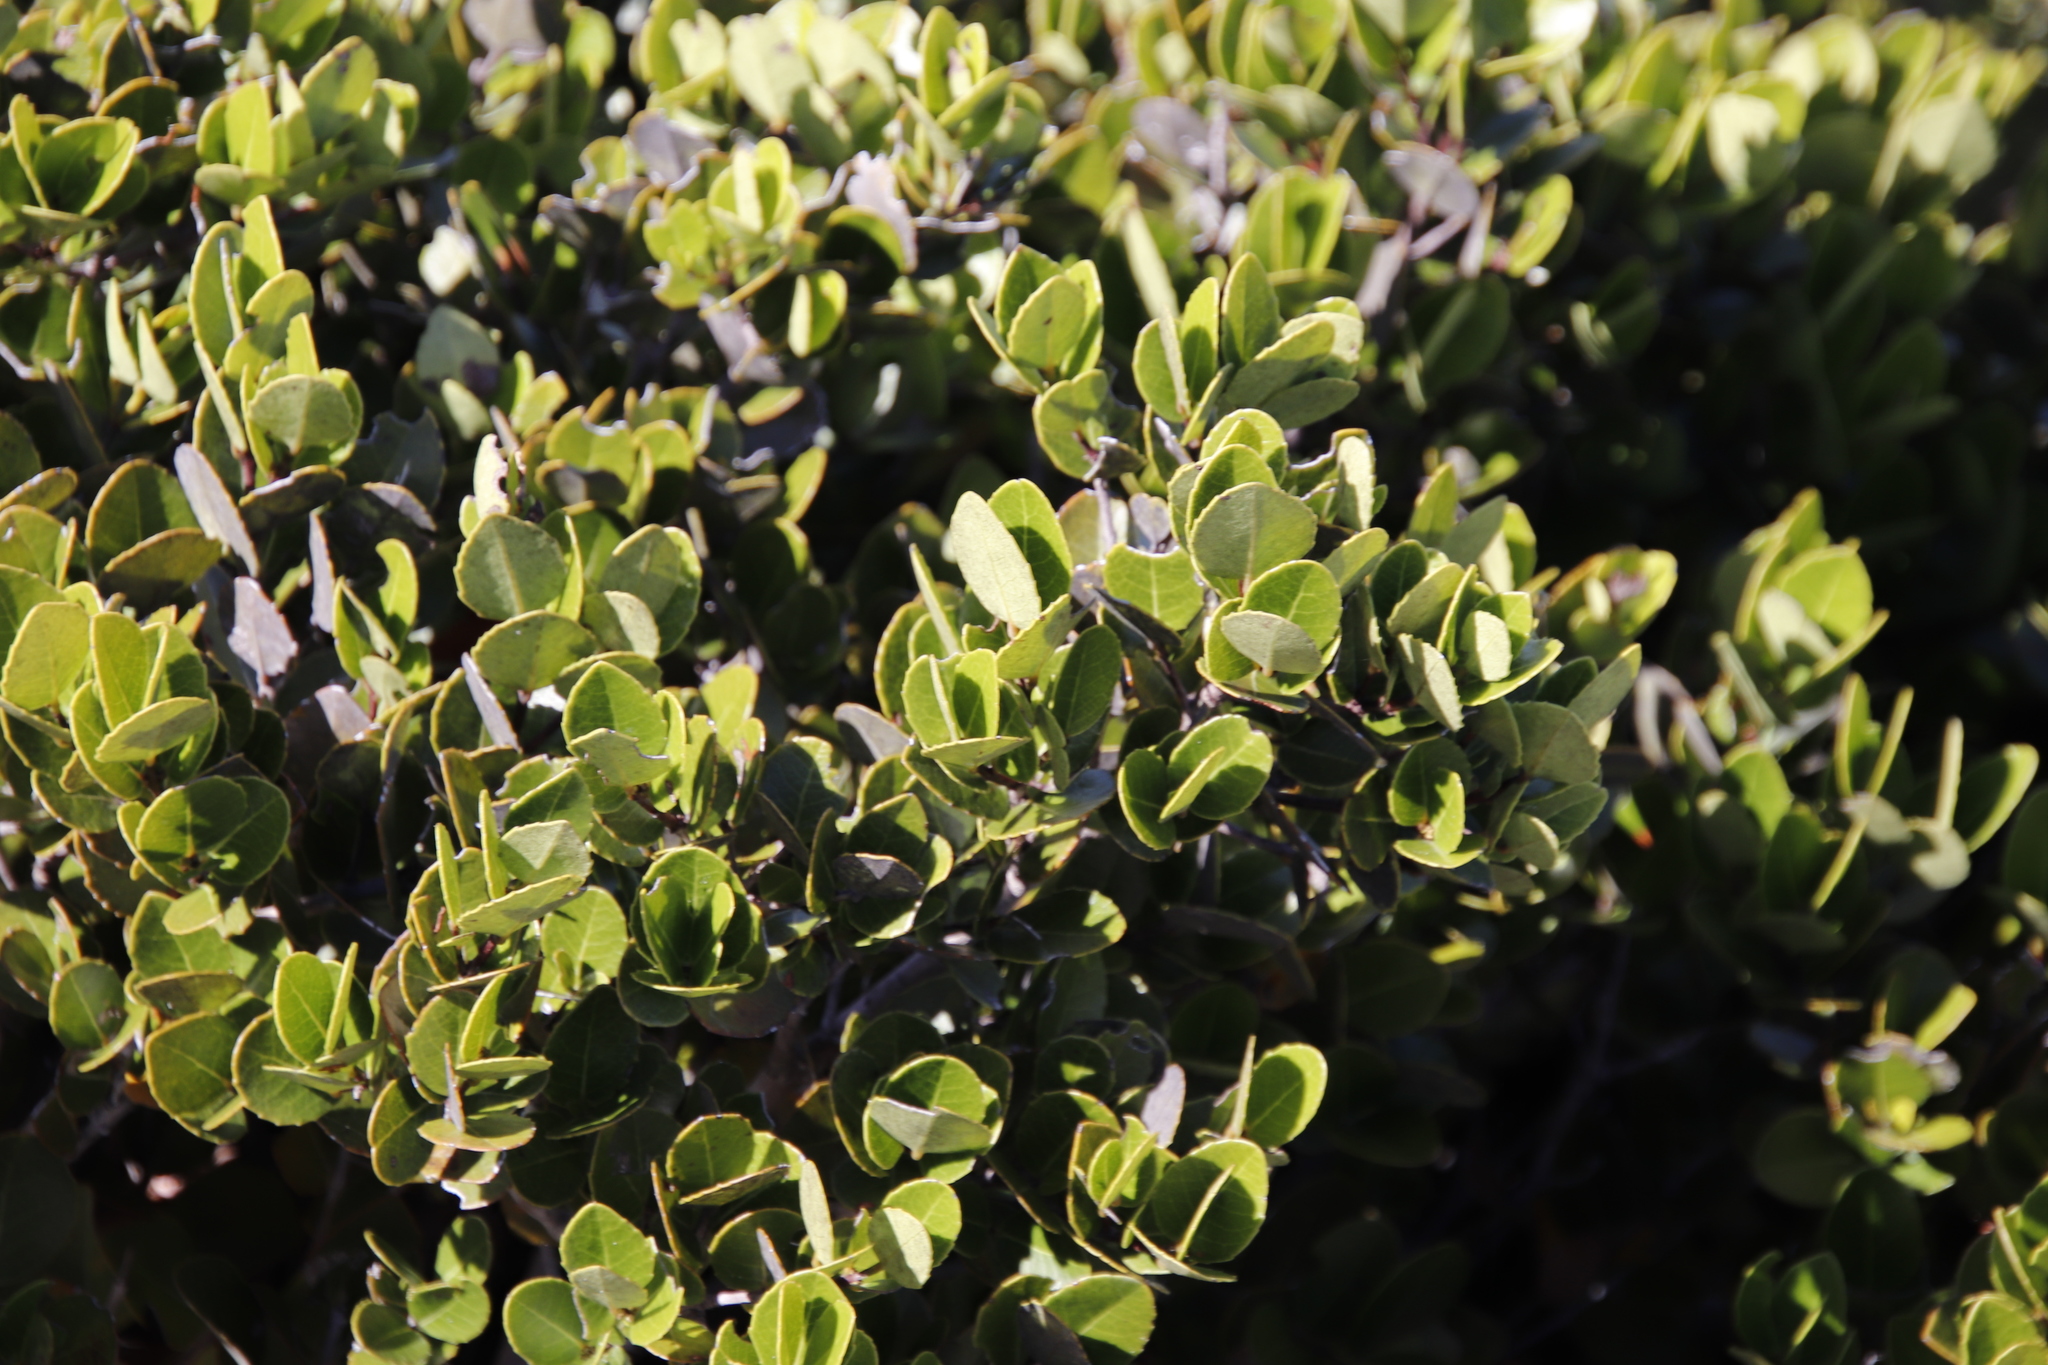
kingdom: Plantae
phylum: Tracheophyta
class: Magnoliopsida
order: Celastrales
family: Celastraceae
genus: Cassine
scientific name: Cassine peragua
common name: Cape saffron
